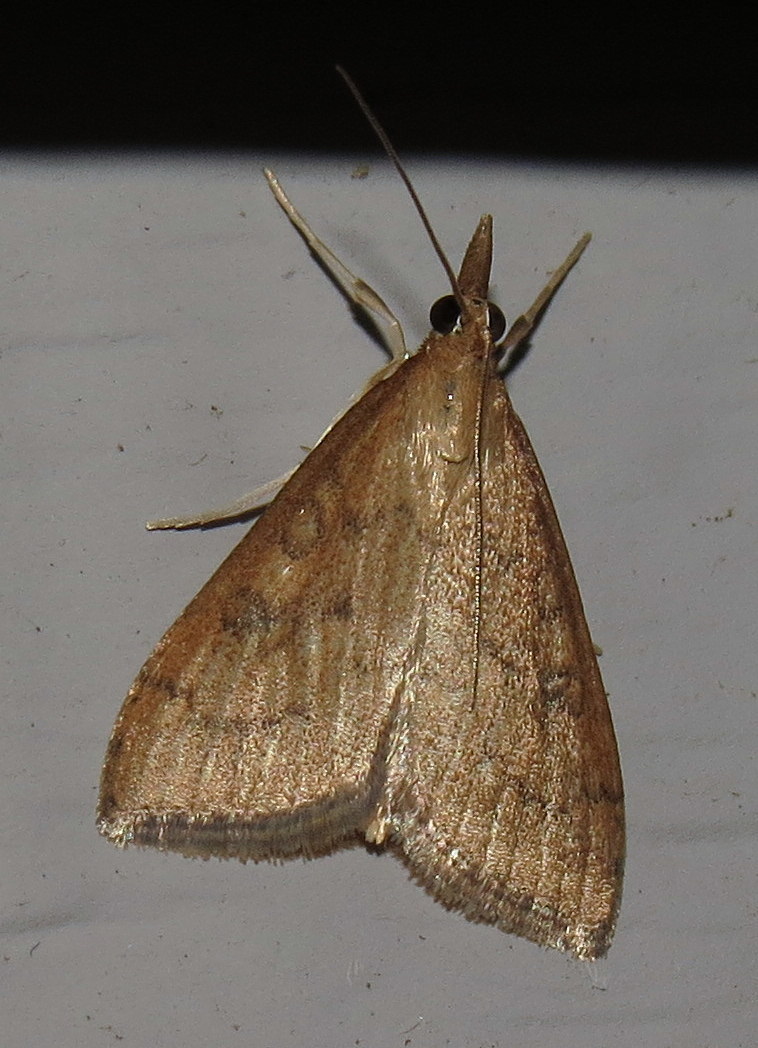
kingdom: Animalia
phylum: Arthropoda
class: Insecta
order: Lepidoptera
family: Crambidae
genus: Udea
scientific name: Udea rubigalis
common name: Celery leaftier moth
